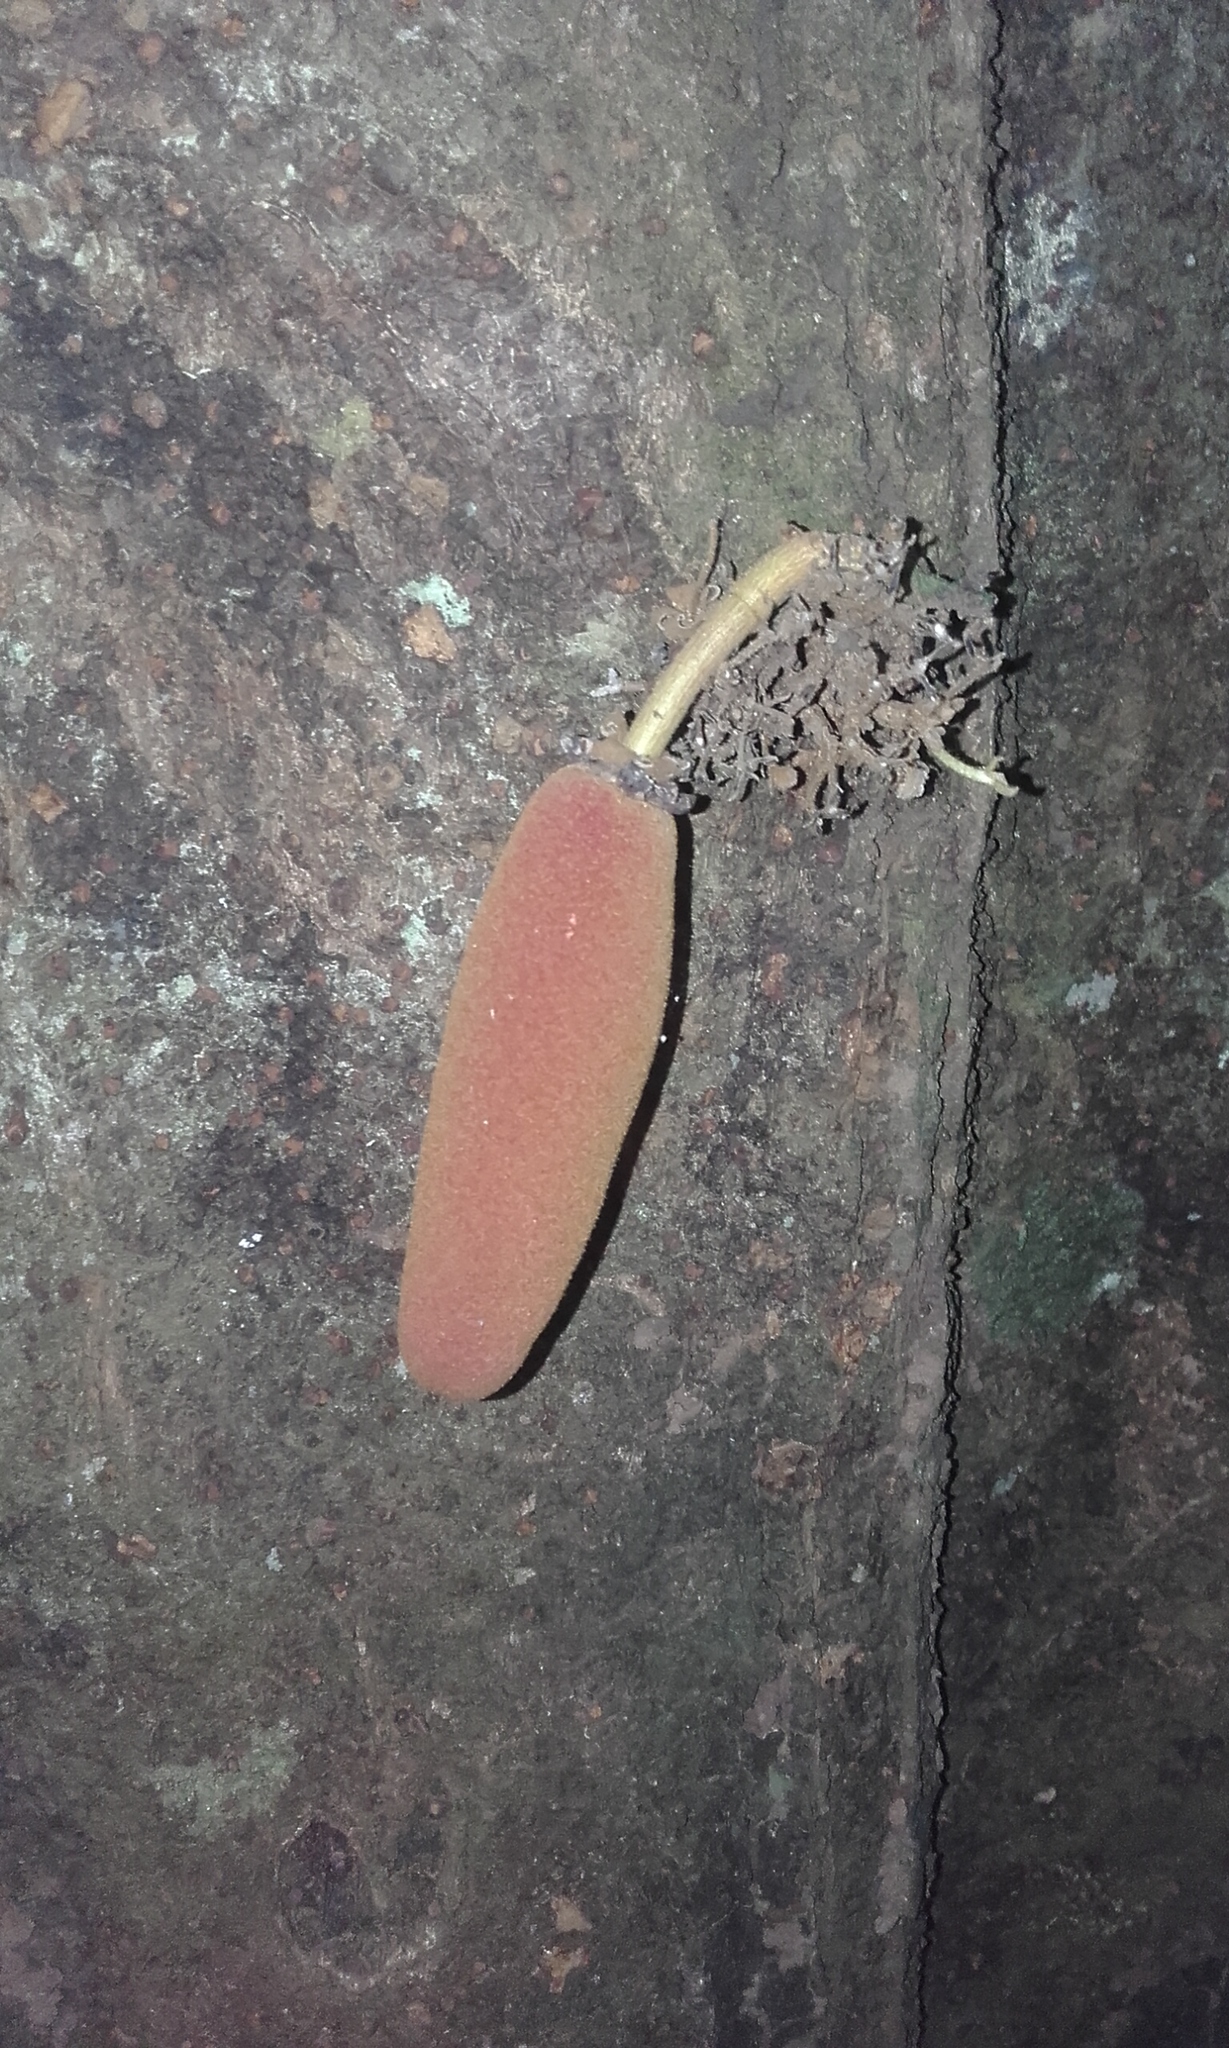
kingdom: Plantae
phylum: Tracheophyta
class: Magnoliopsida
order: Malvales
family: Malvaceae
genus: Theobroma
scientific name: Theobroma simiarum
